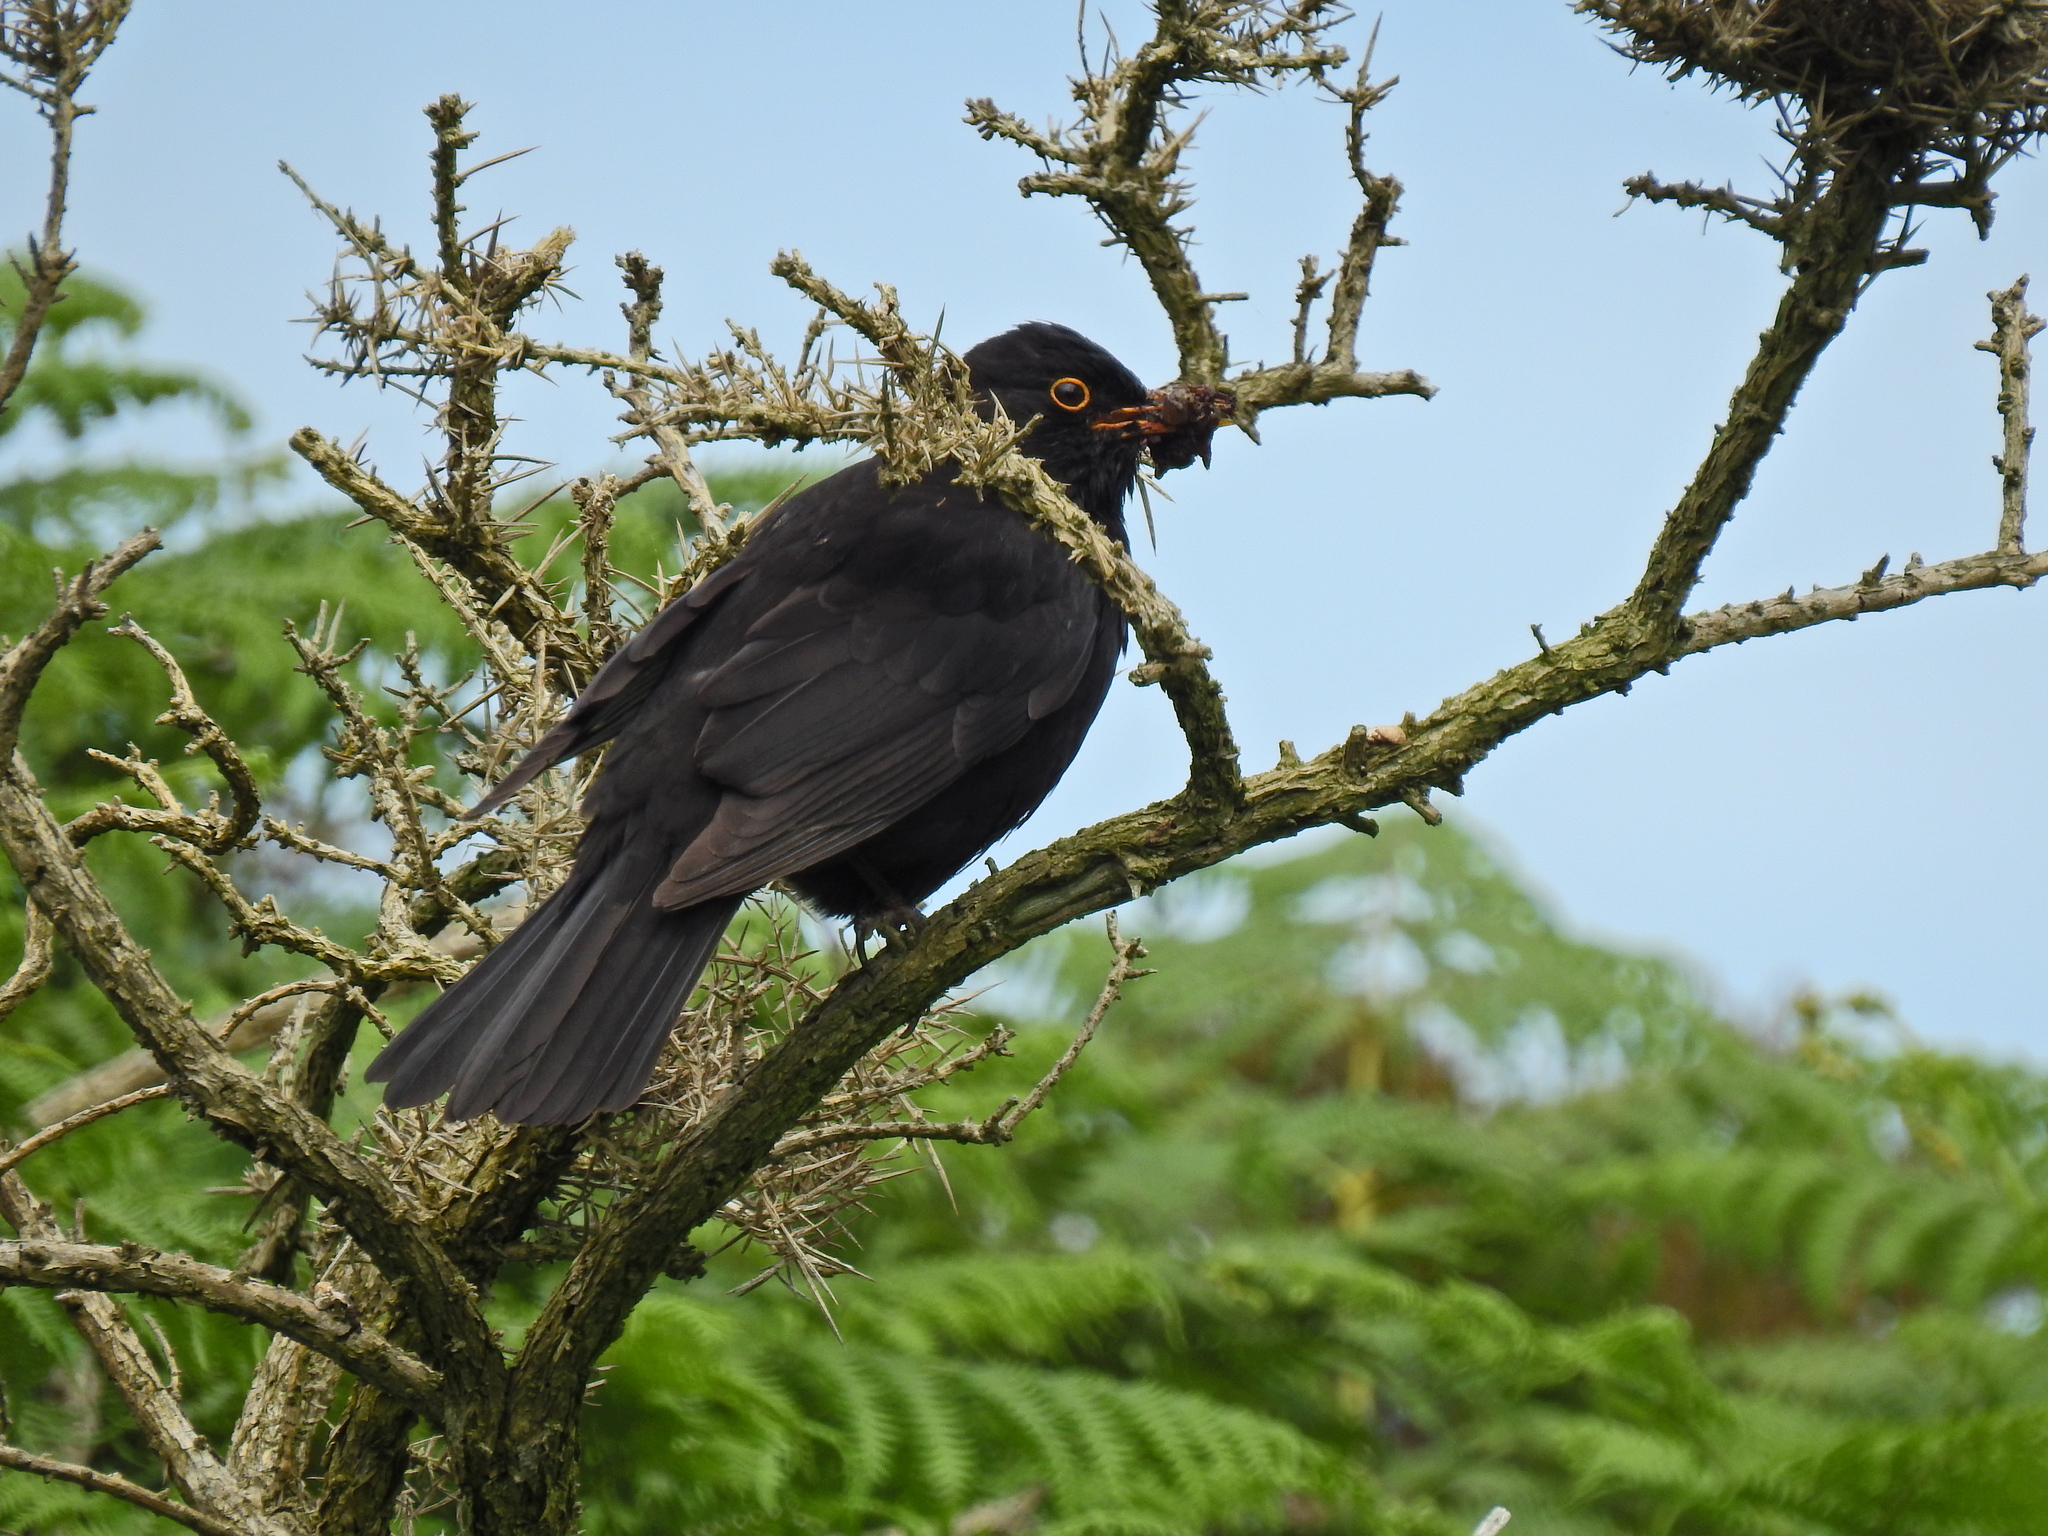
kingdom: Animalia
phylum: Chordata
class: Aves
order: Passeriformes
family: Turdidae
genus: Turdus
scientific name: Turdus merula
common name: Common blackbird
